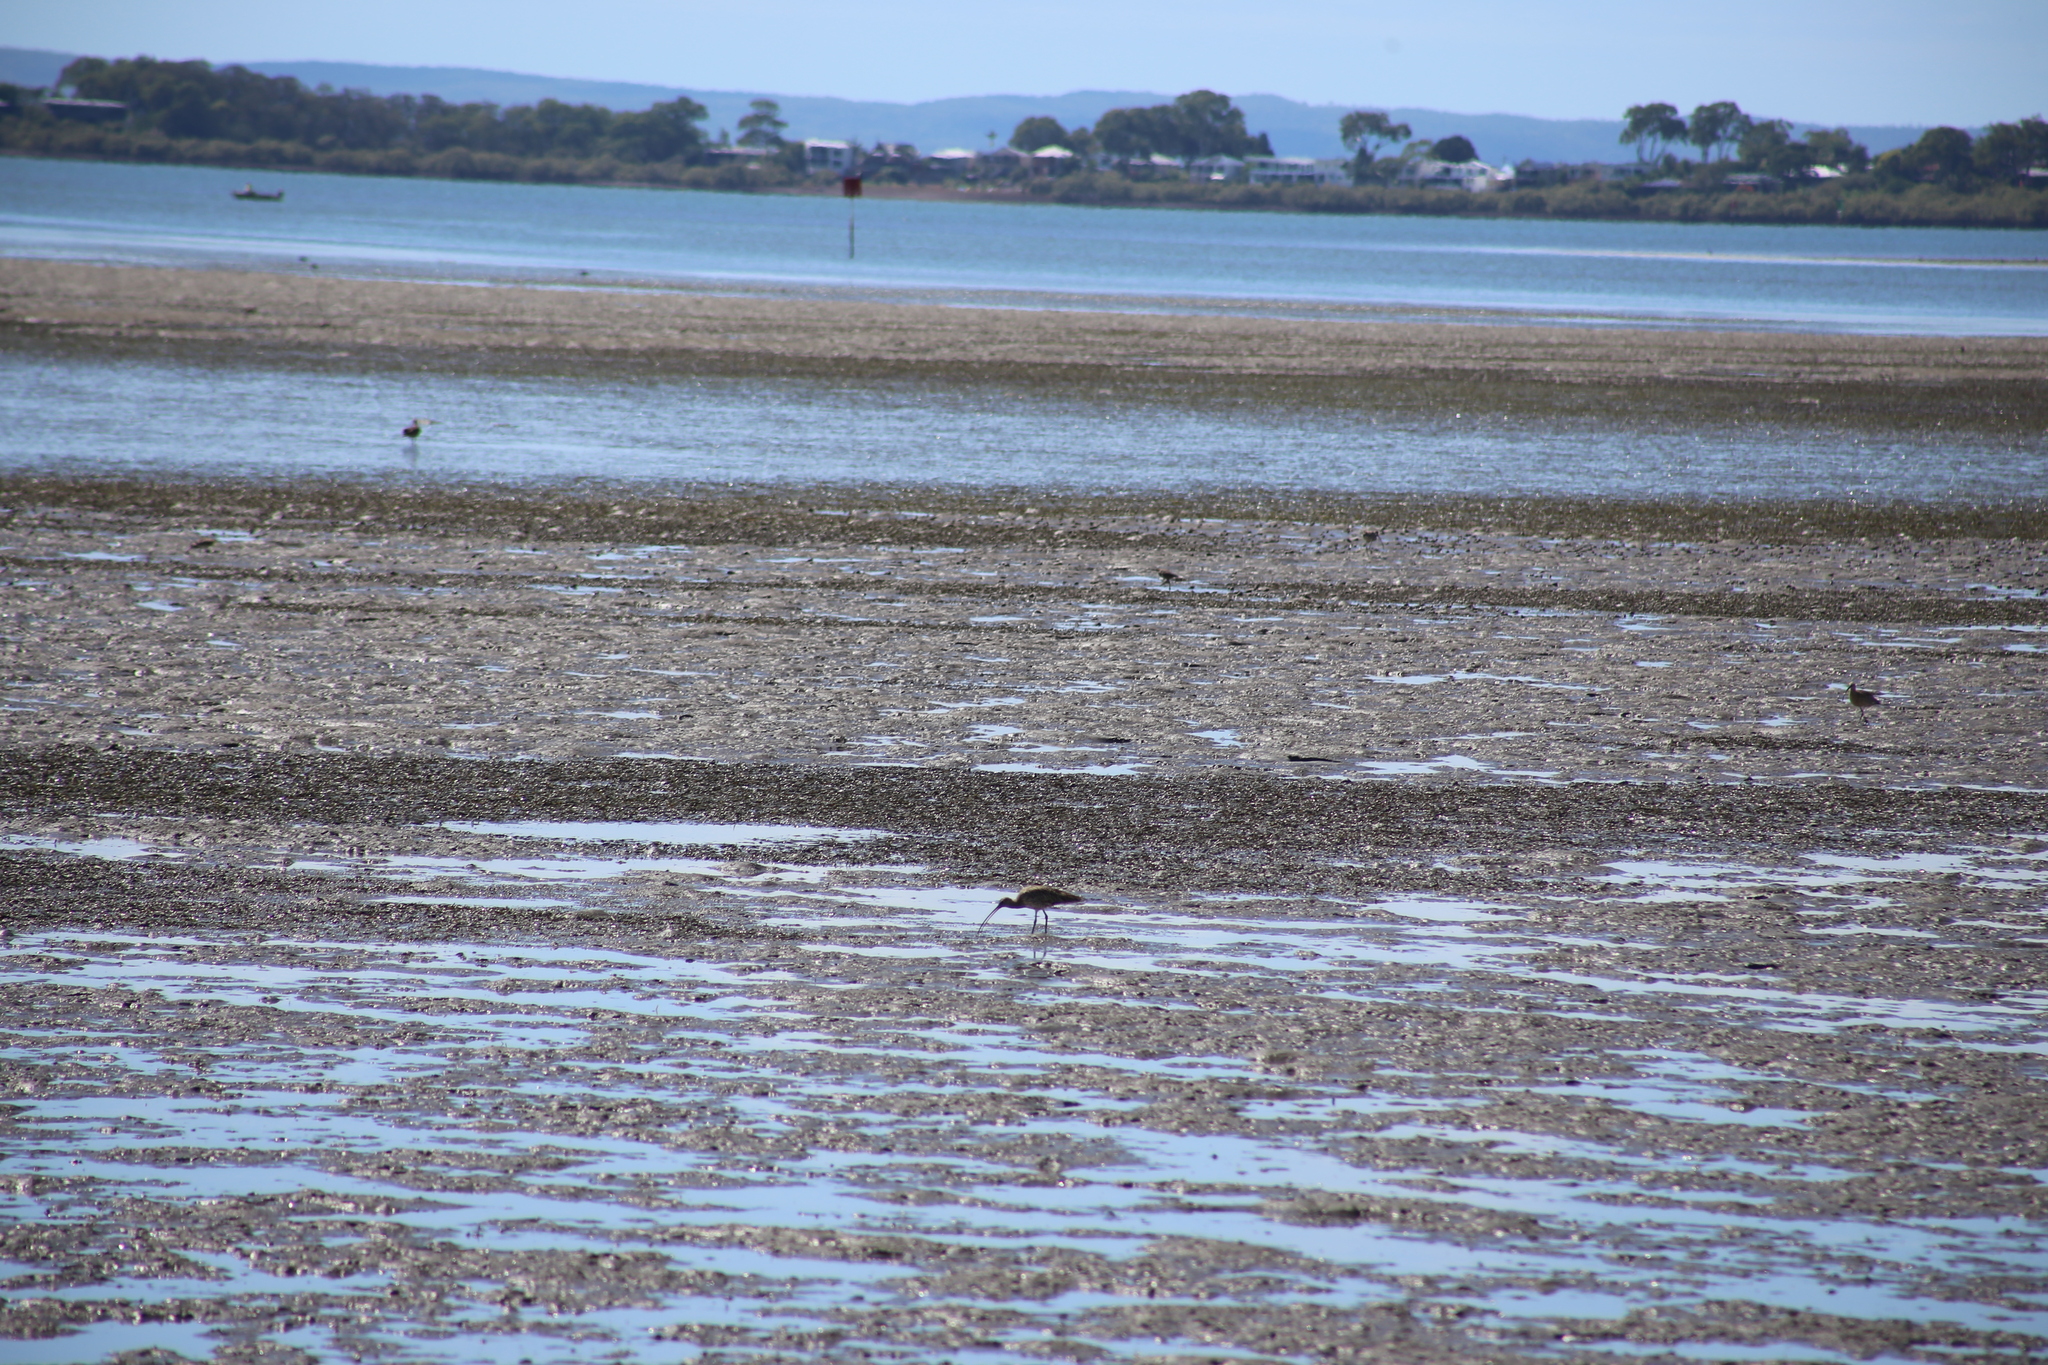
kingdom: Animalia
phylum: Chordata
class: Aves
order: Charadriiformes
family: Scolopacidae
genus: Numenius
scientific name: Numenius madagascariensis
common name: Far eastern curlew
